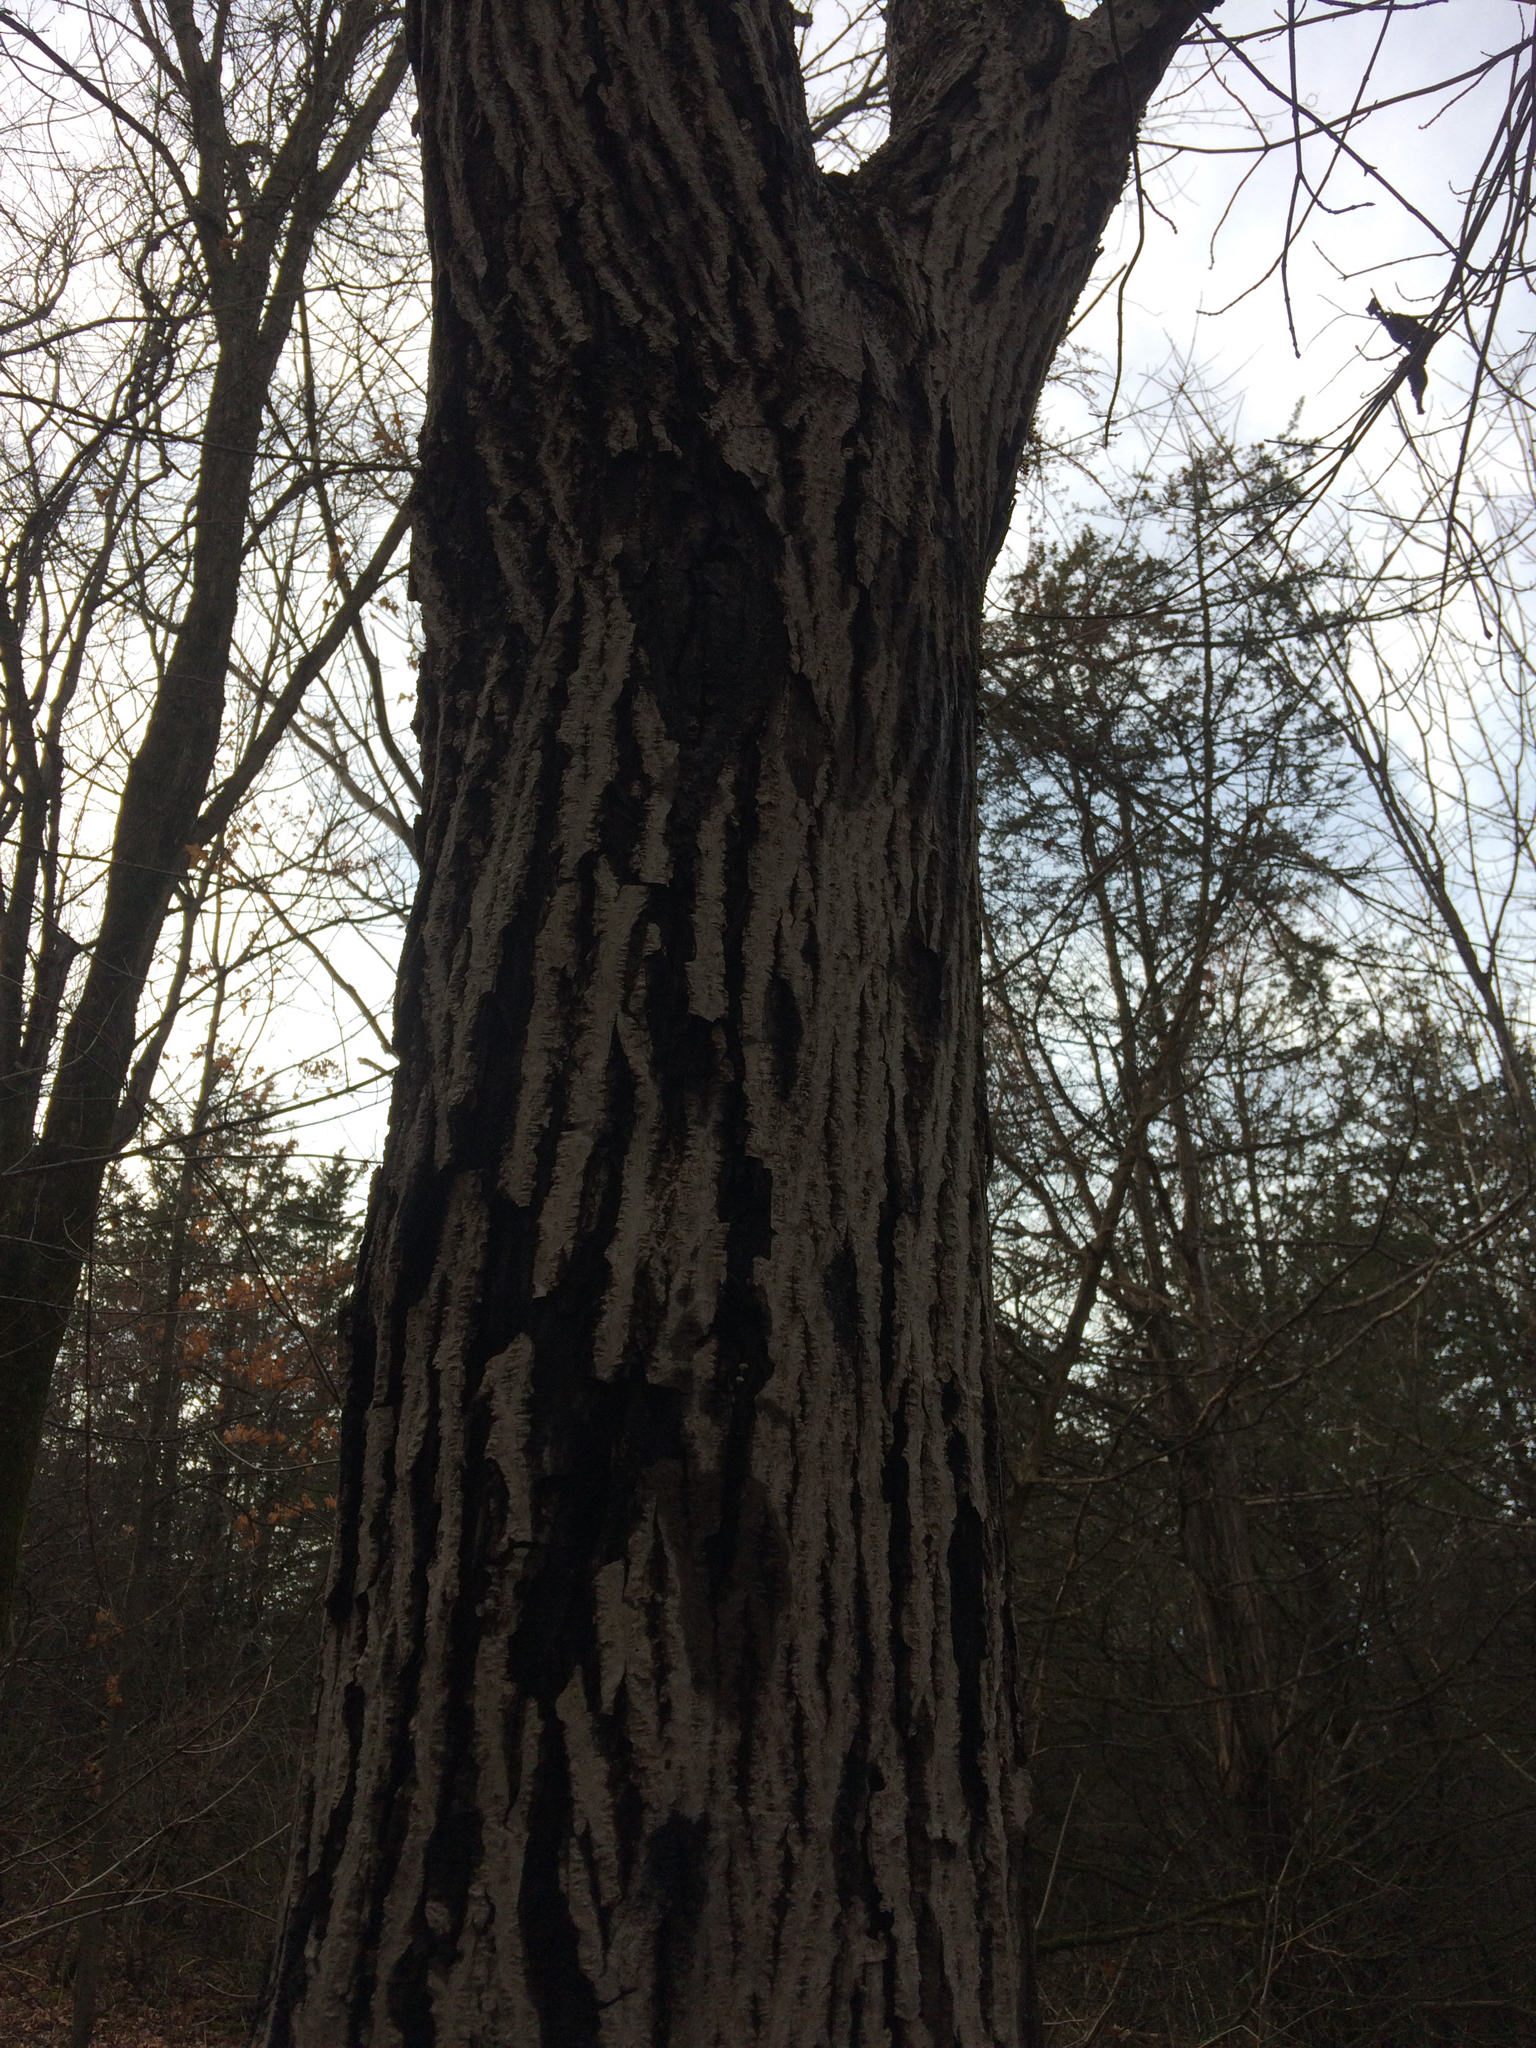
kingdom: Plantae
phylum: Tracheophyta
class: Magnoliopsida
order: Fagales
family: Juglandaceae
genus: Juglans
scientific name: Juglans cinerea
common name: Butternut
